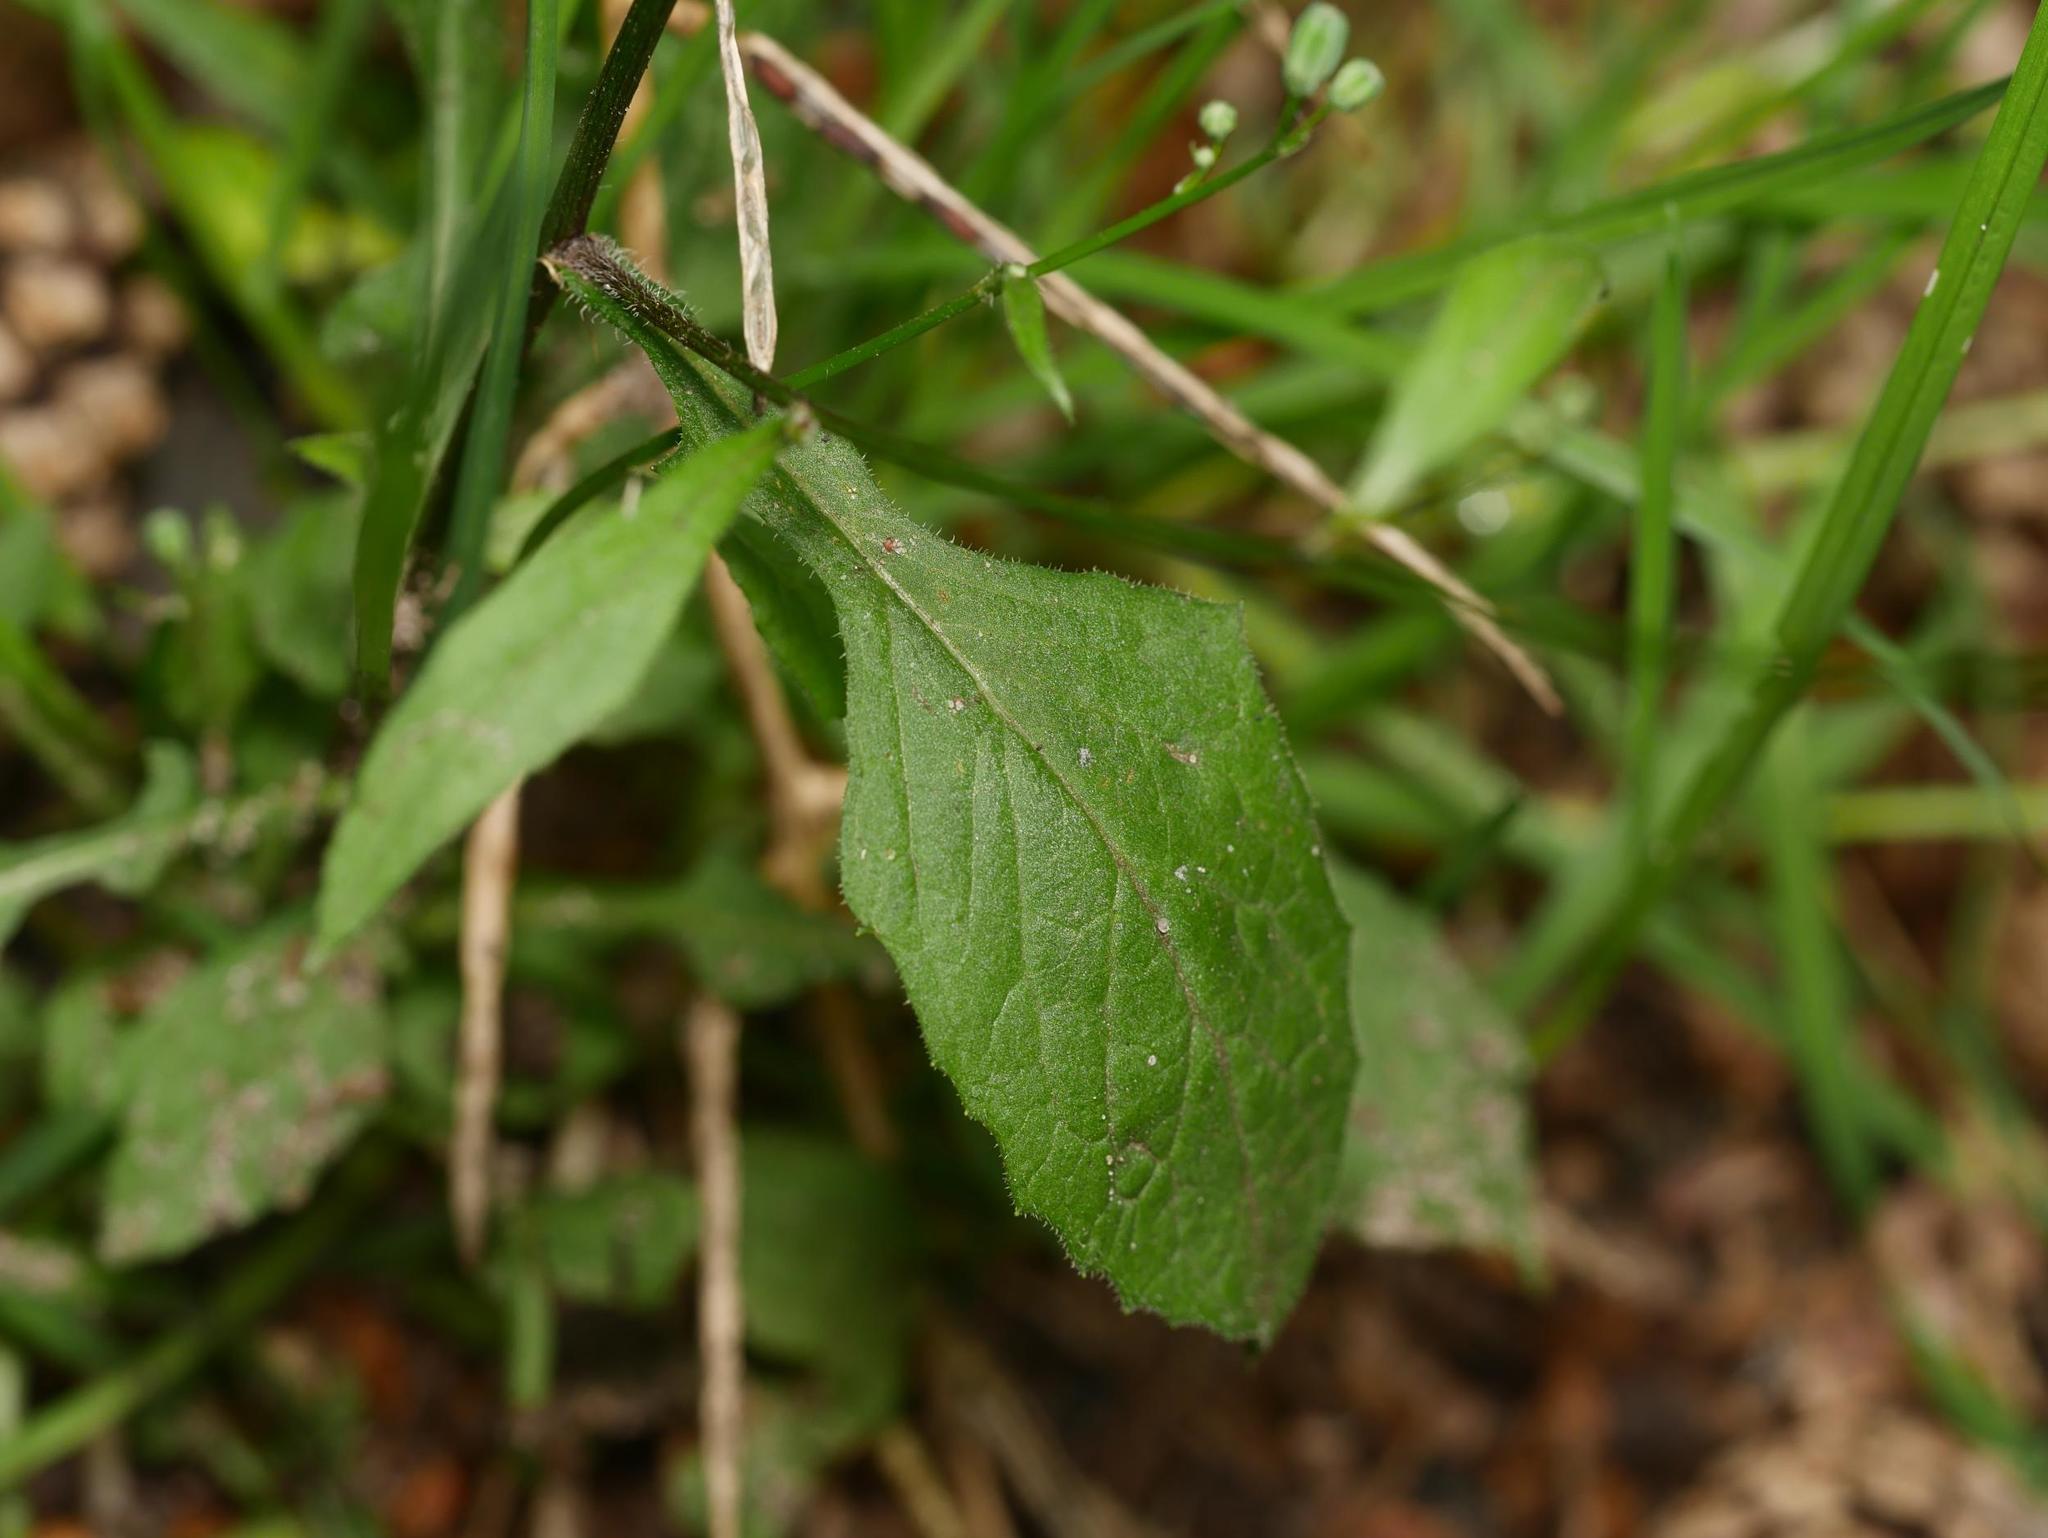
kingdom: Plantae
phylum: Tracheophyta
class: Magnoliopsida
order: Asterales
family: Asteraceae
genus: Lapsana
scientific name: Lapsana communis
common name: Nipplewort
